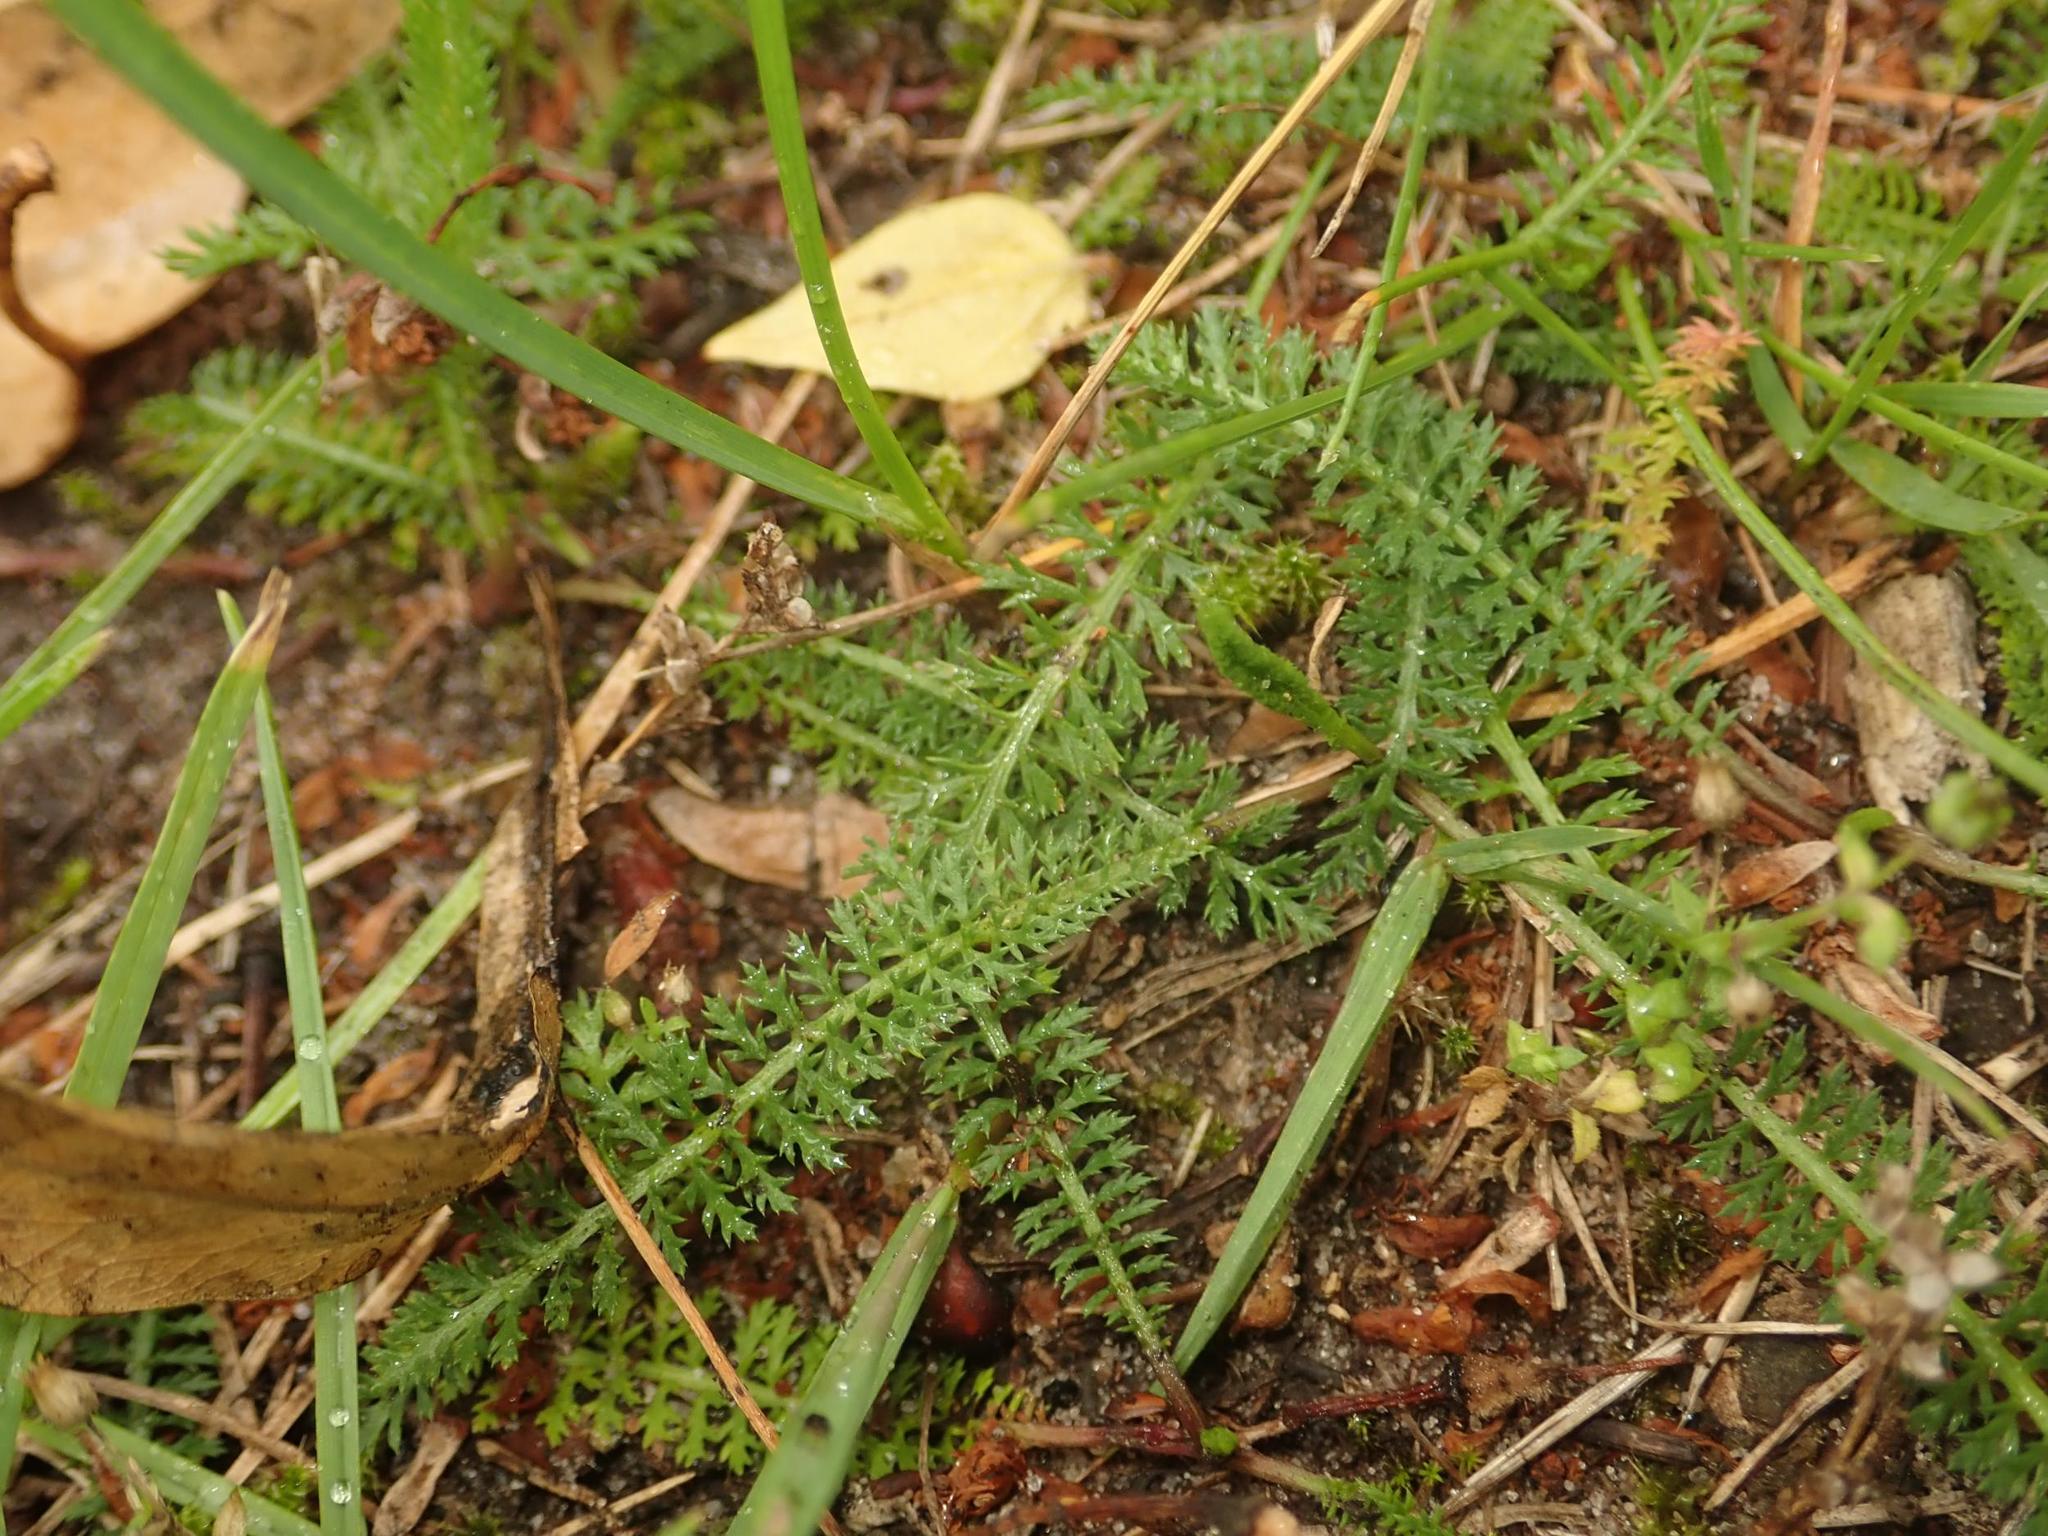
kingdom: Plantae
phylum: Tracheophyta
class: Magnoliopsida
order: Asterales
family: Asteraceae
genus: Achillea
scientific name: Achillea millefolium
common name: Yarrow
